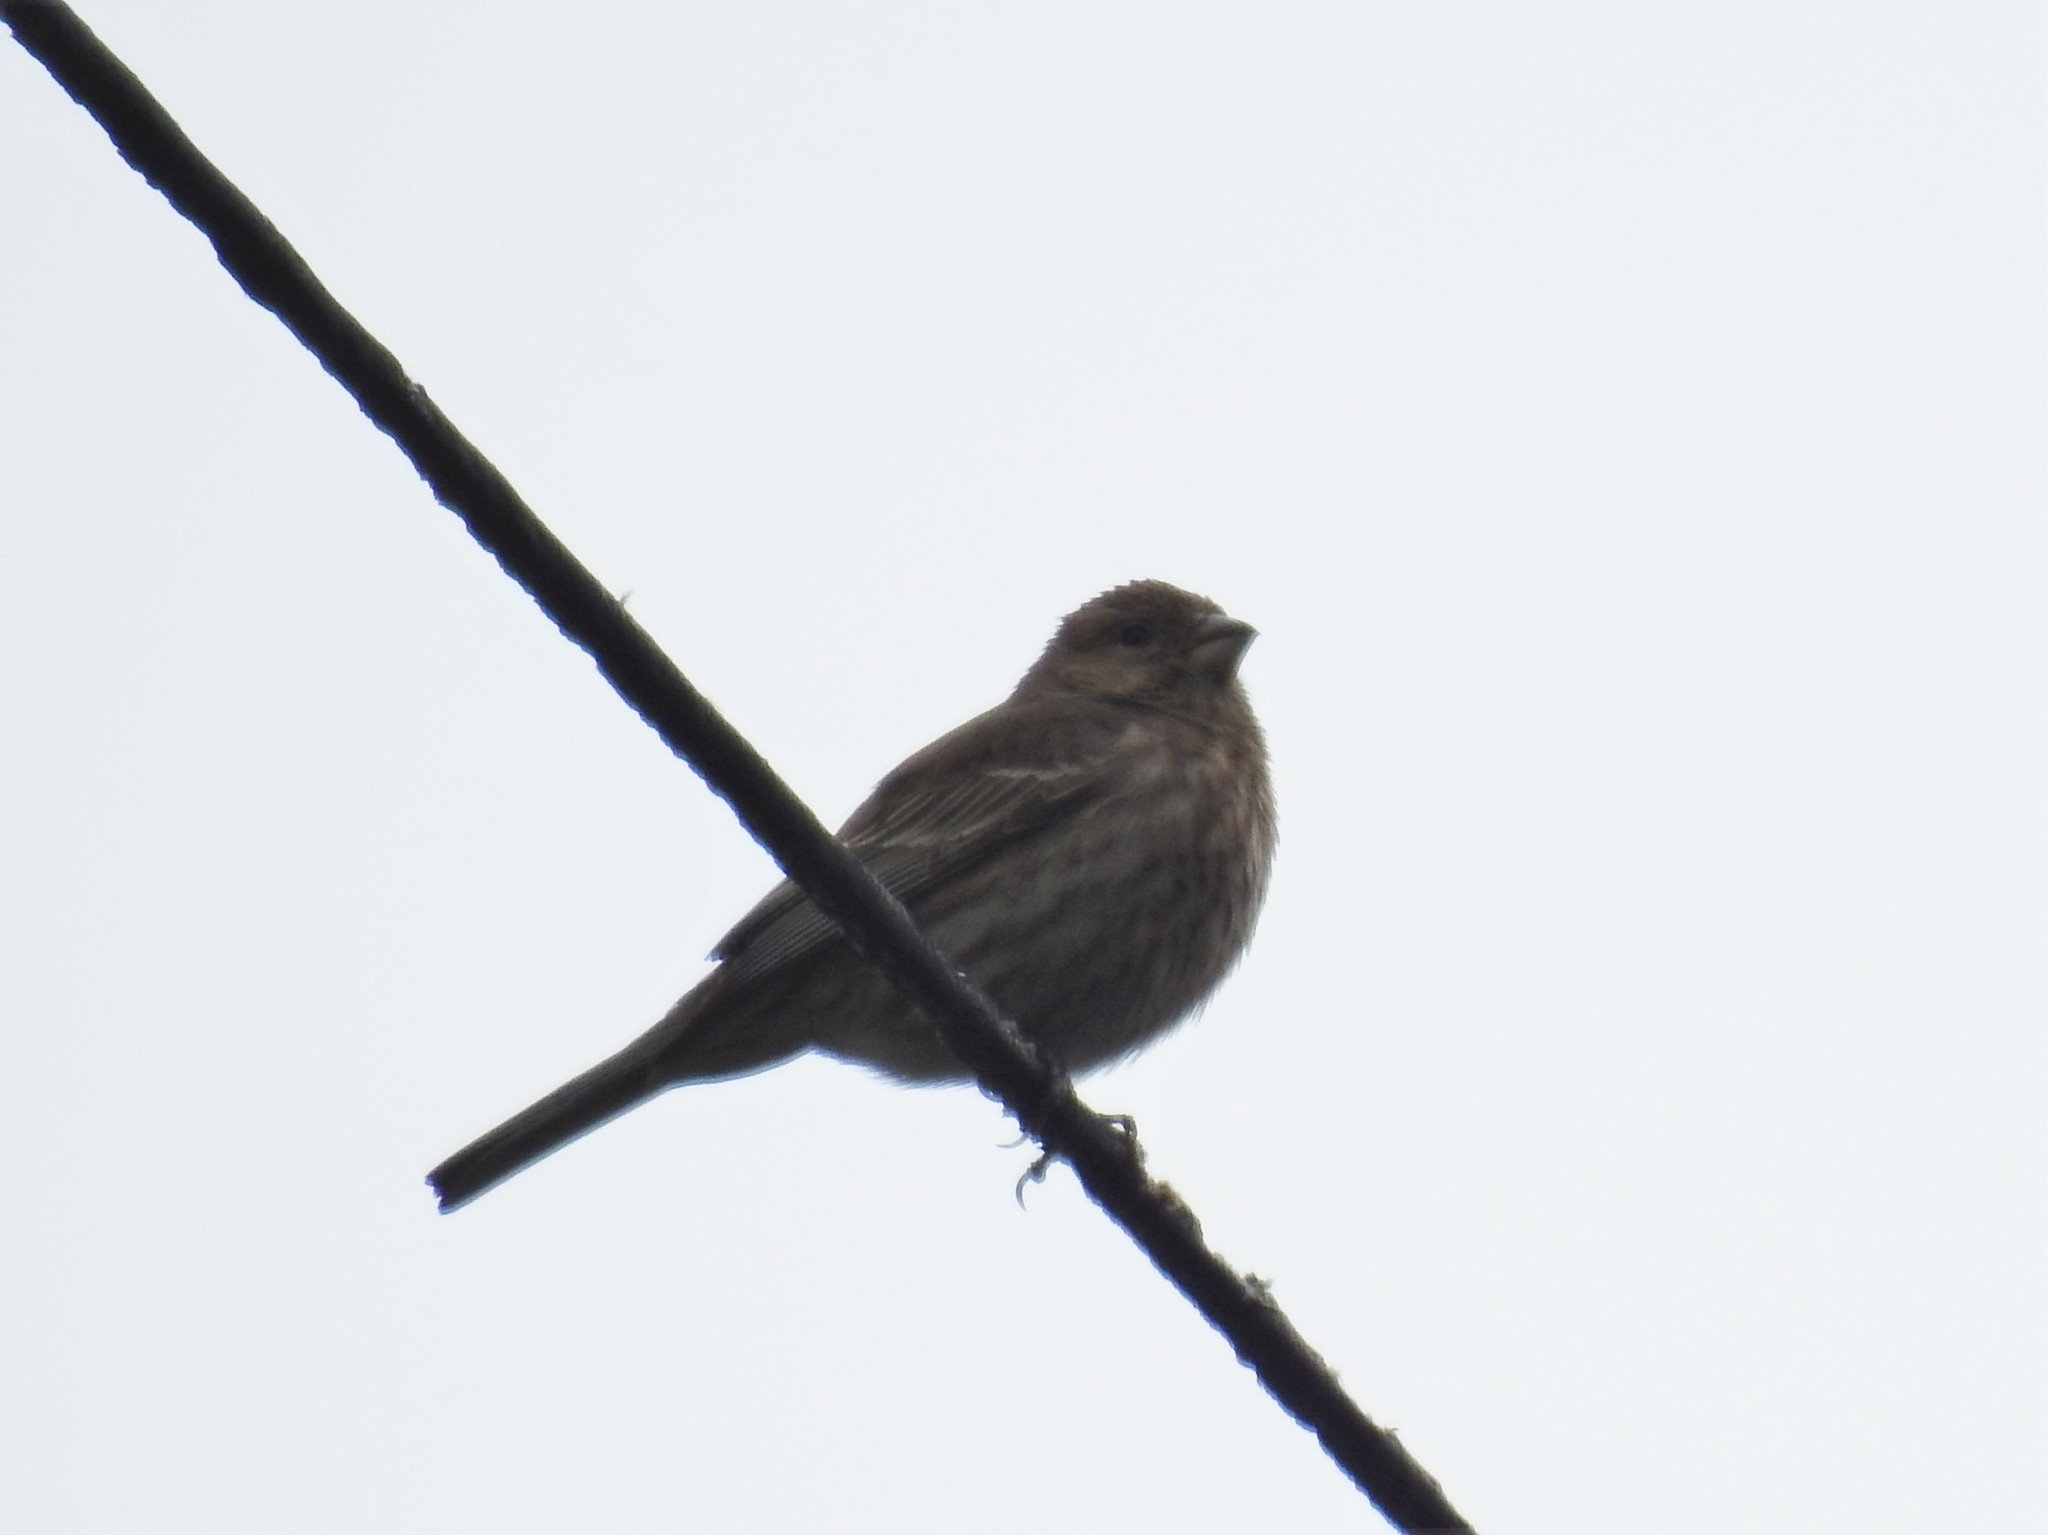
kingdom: Animalia
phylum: Chordata
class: Aves
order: Passeriformes
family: Fringillidae
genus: Haemorhous
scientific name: Haemorhous mexicanus
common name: House finch
